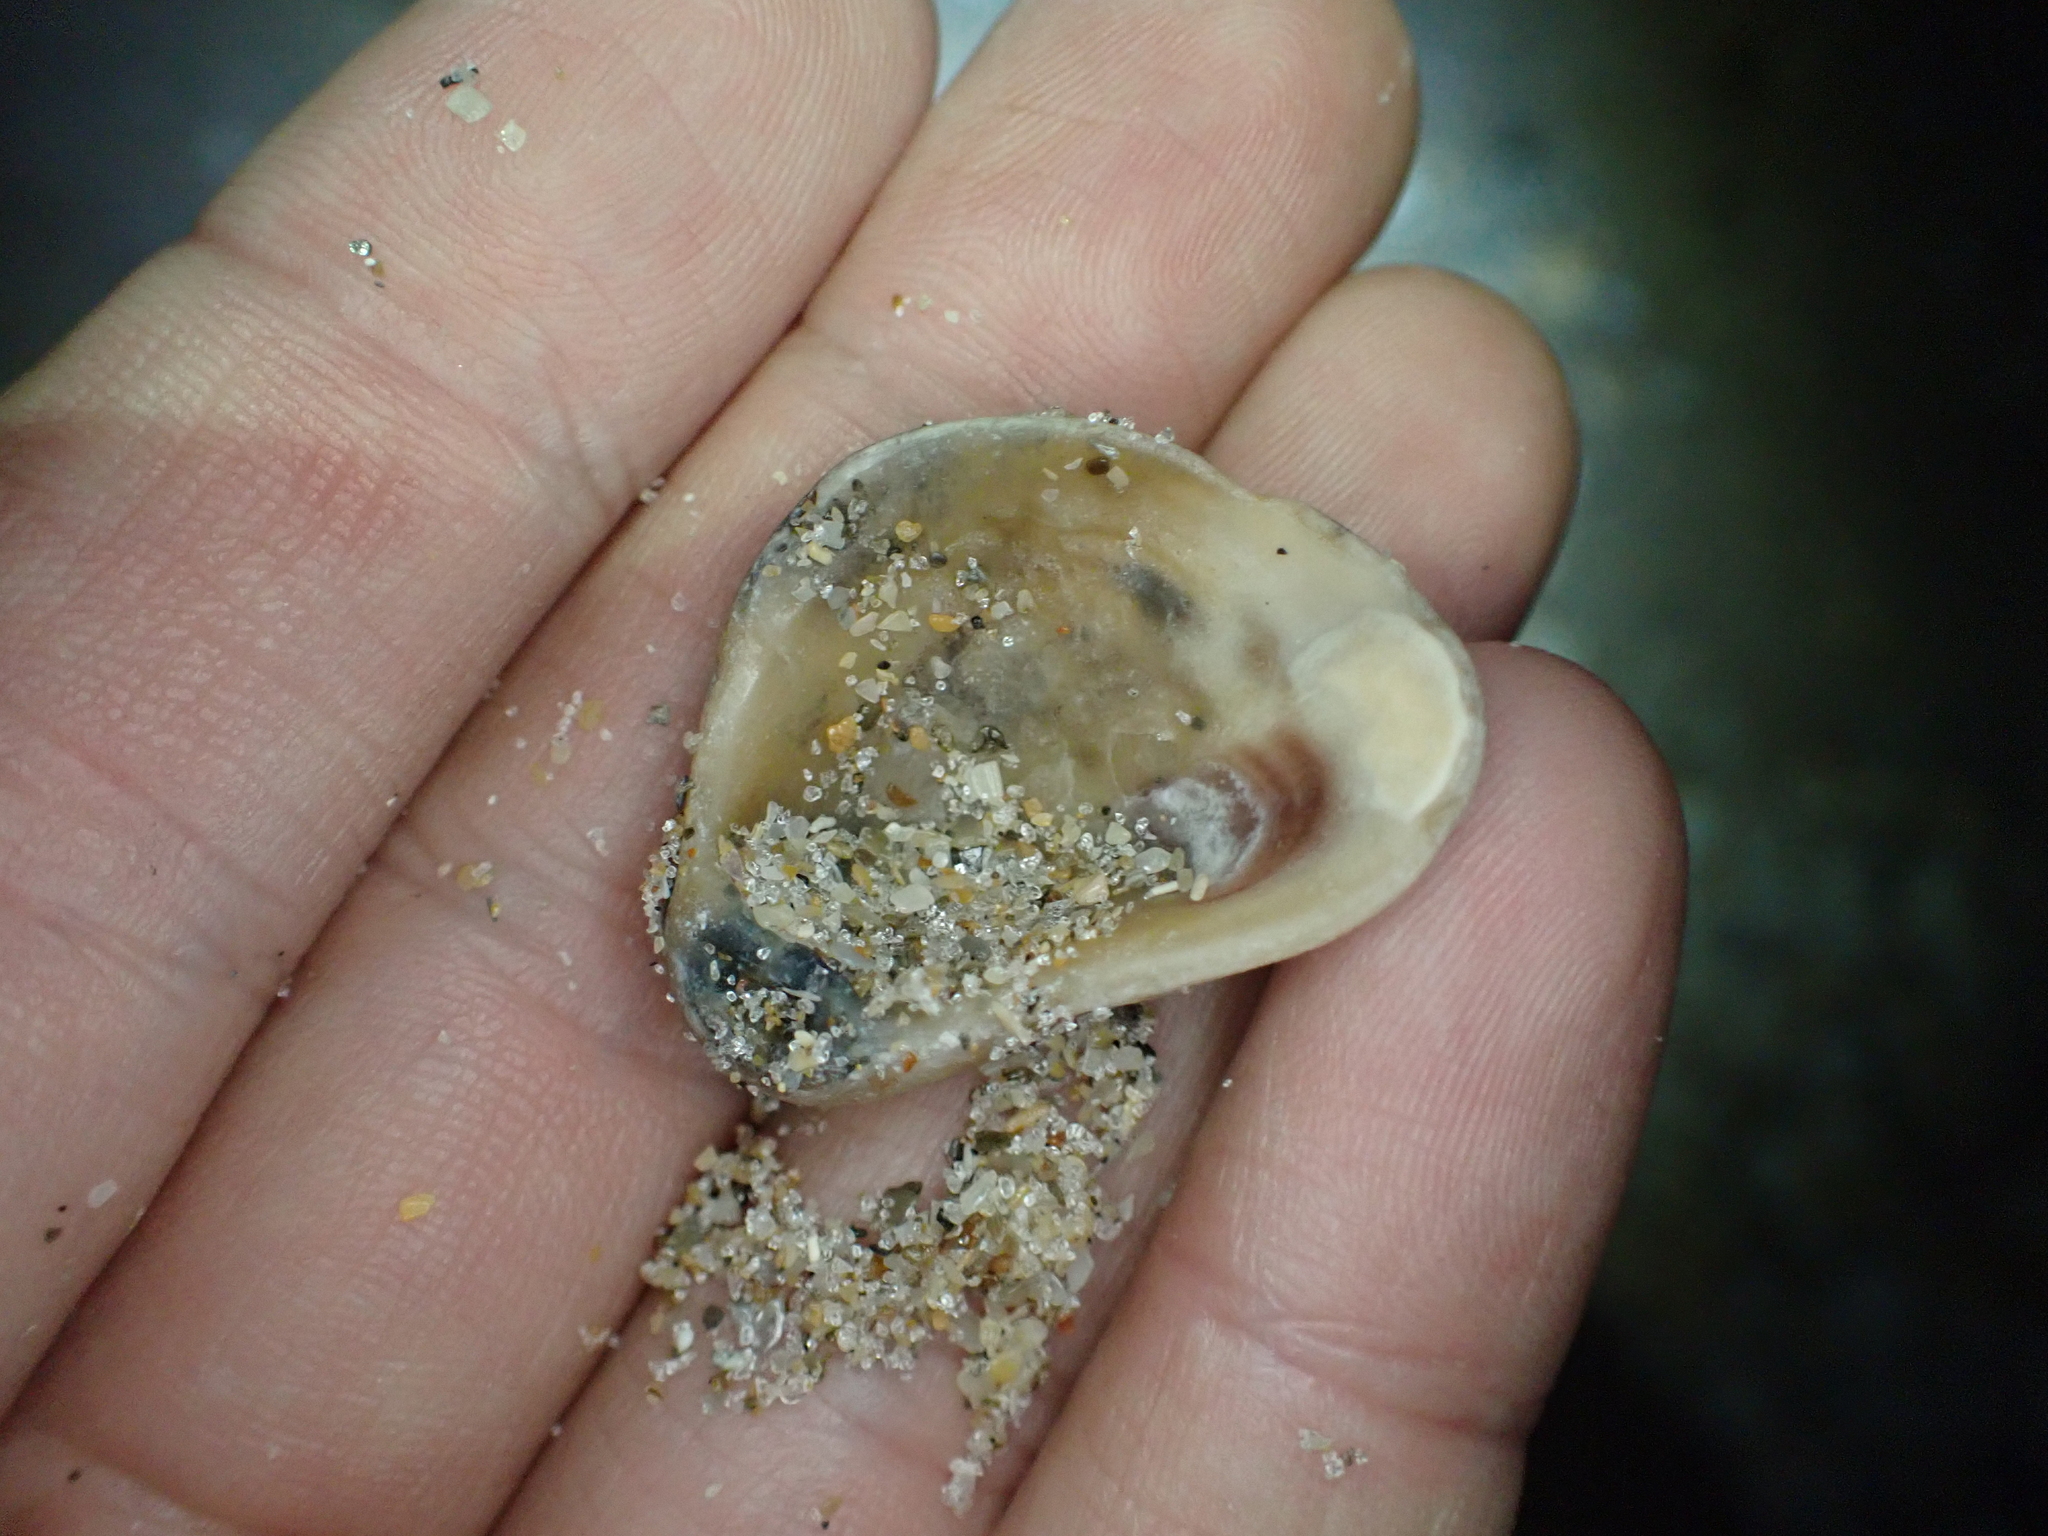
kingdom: Animalia
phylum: Mollusca
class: Bivalvia
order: Ostreida
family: Ostreidae
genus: Crassostrea
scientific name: Crassostrea virginica
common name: American oyster
